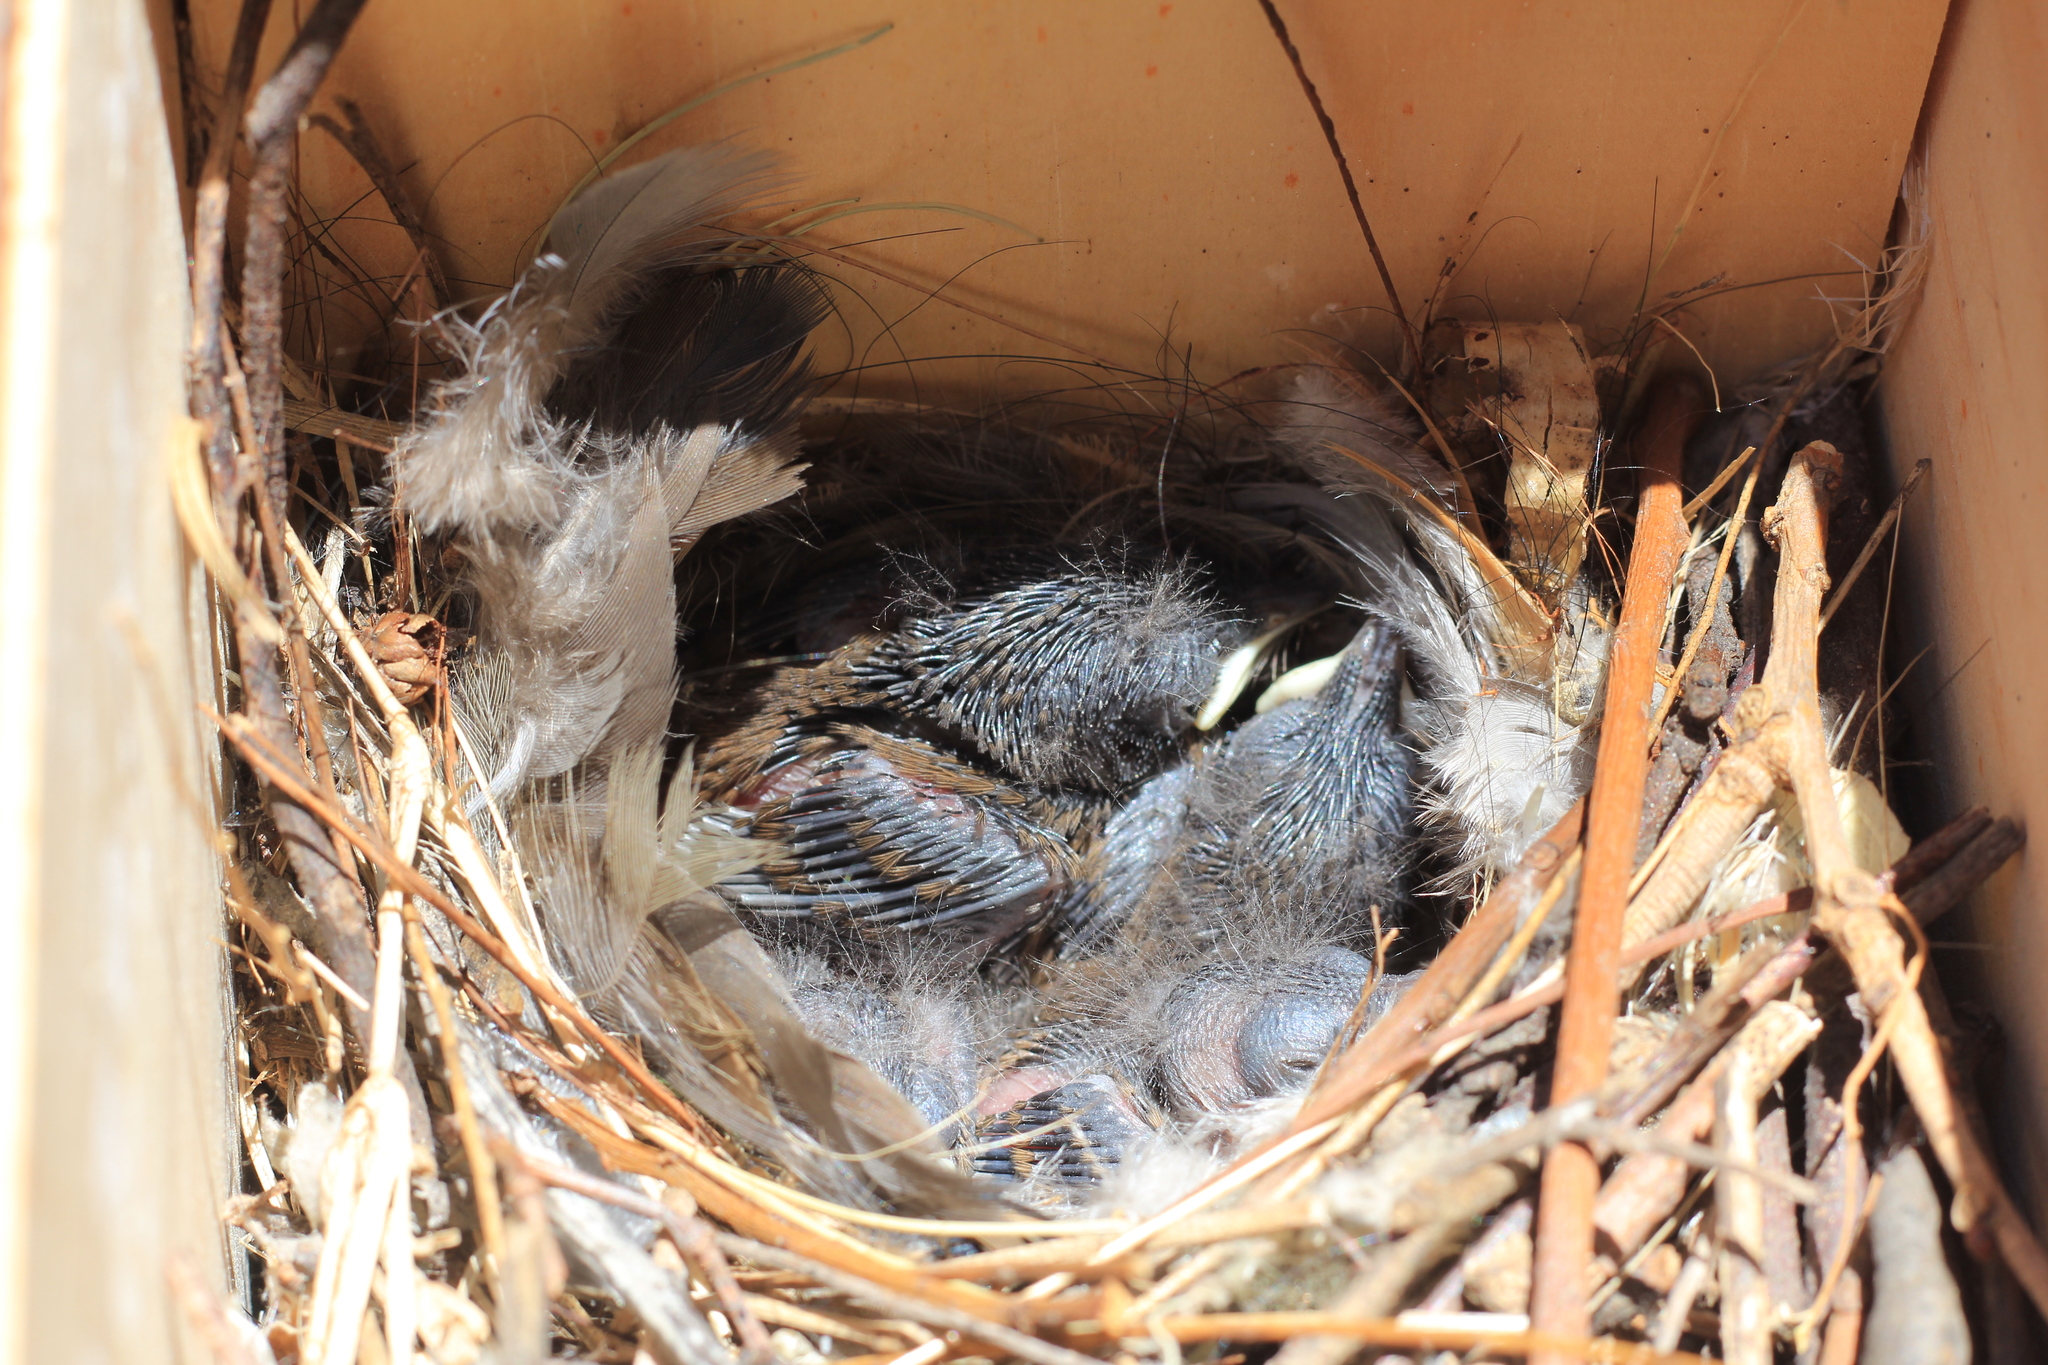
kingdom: Animalia
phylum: Chordata
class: Aves
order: Passeriformes
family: Troglodytidae
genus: Troglodytes
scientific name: Troglodytes aedon
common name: House wren
